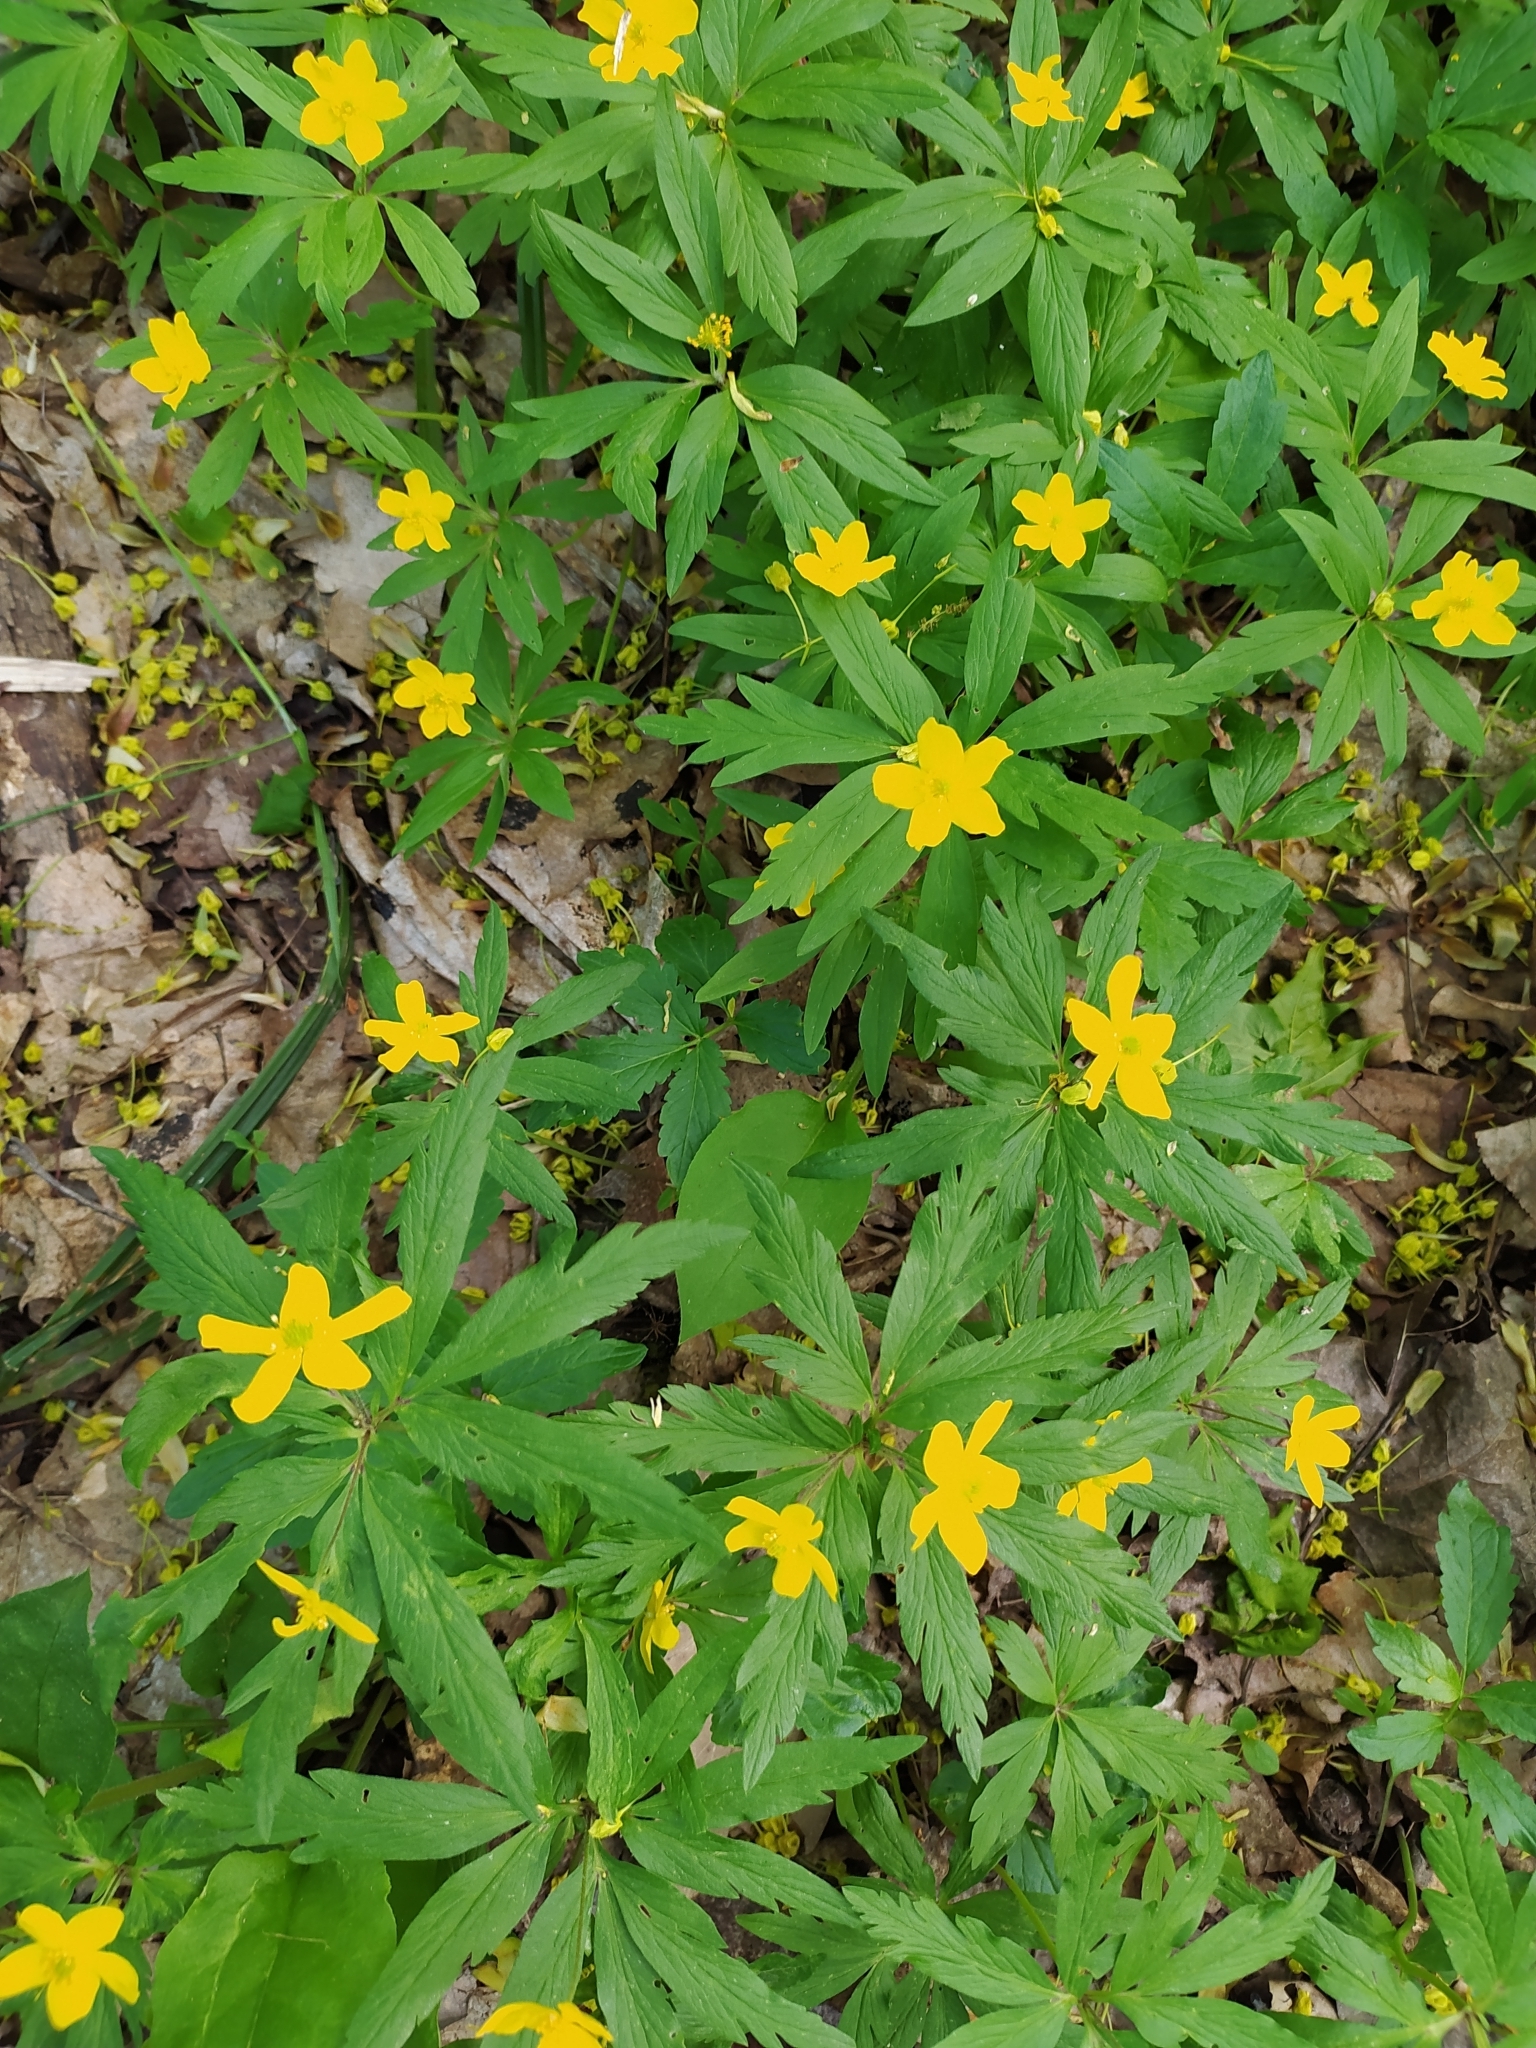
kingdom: Plantae
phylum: Tracheophyta
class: Magnoliopsida
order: Ranunculales
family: Ranunculaceae
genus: Anemone
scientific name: Anemone ranunculoides
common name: Yellow anemone
